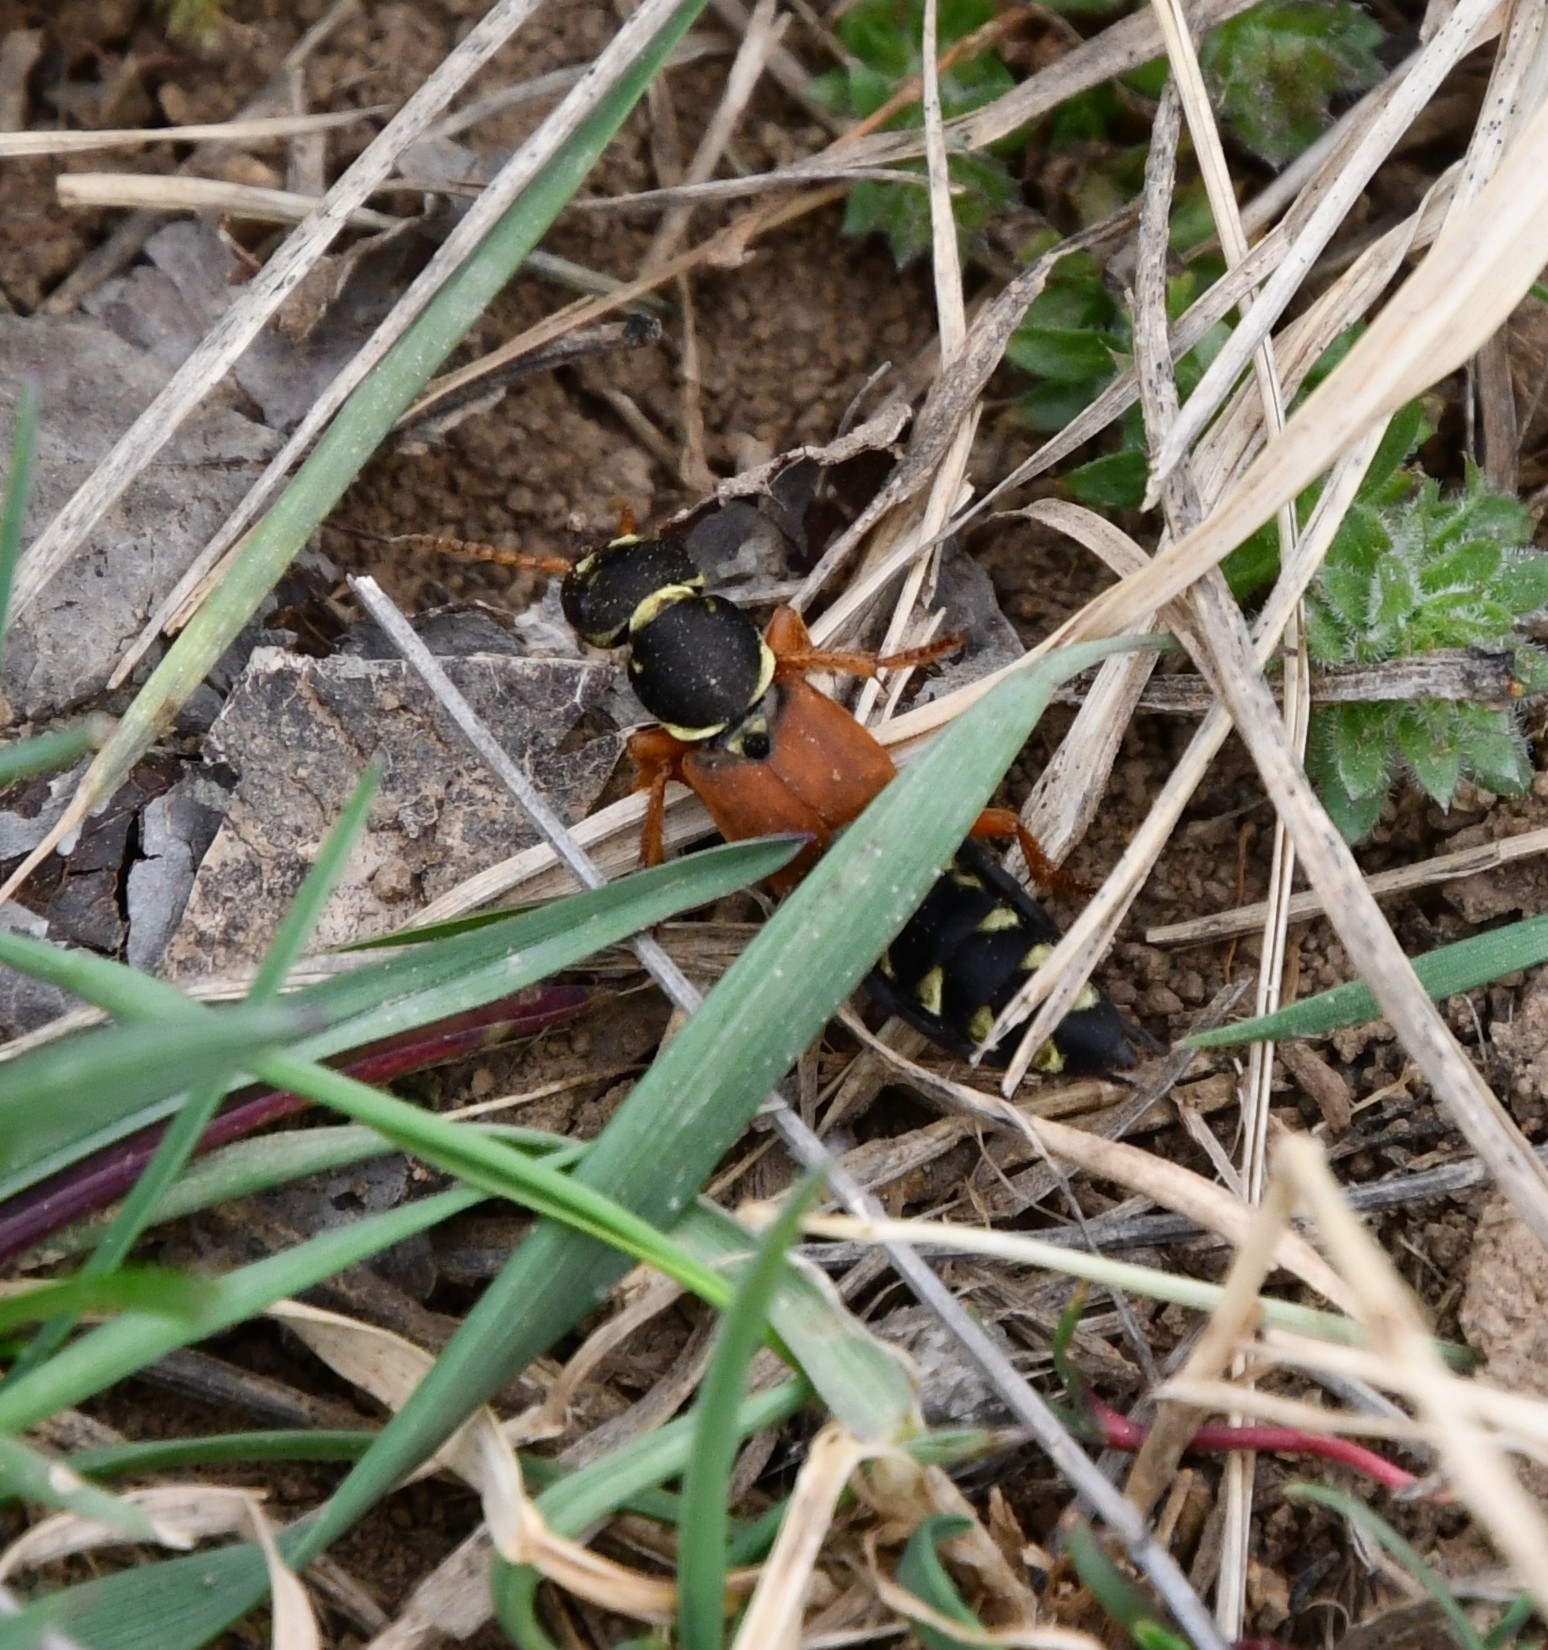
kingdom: Animalia
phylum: Arthropoda
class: Insecta
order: Coleoptera
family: Staphylinidae
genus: Staphylinus
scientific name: Staphylinus caesareus
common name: Staph beetle
